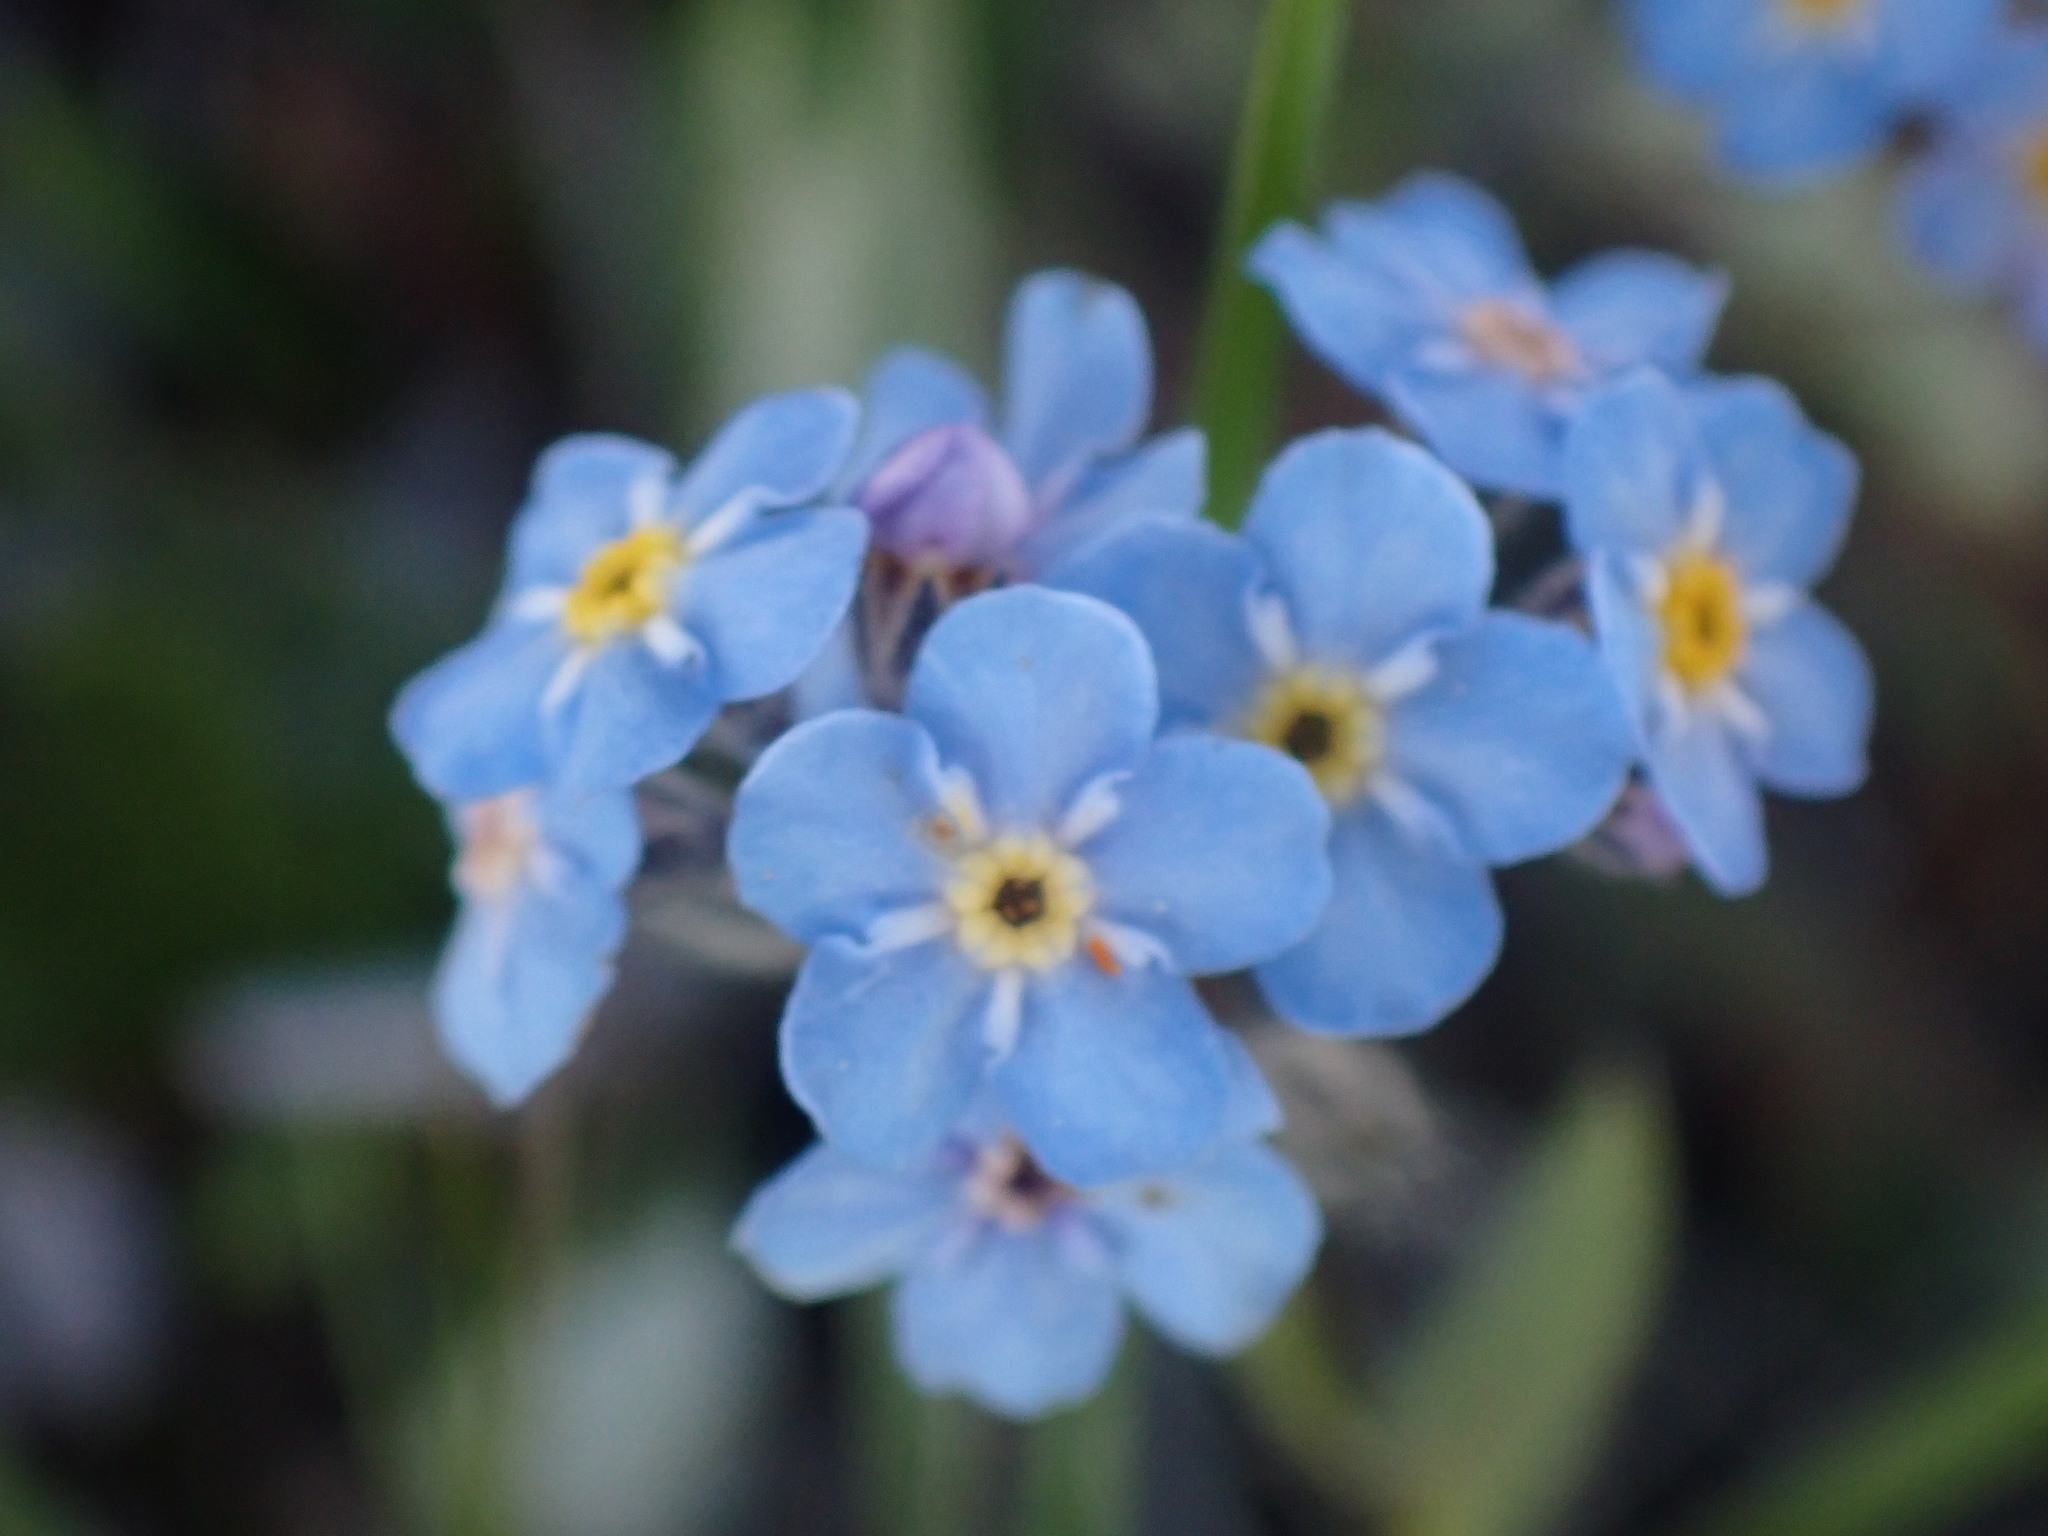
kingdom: Plantae
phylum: Tracheophyta
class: Magnoliopsida
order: Boraginales
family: Boraginaceae
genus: Myosotis
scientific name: Myosotis asiatica
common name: Asian forget-me-not
